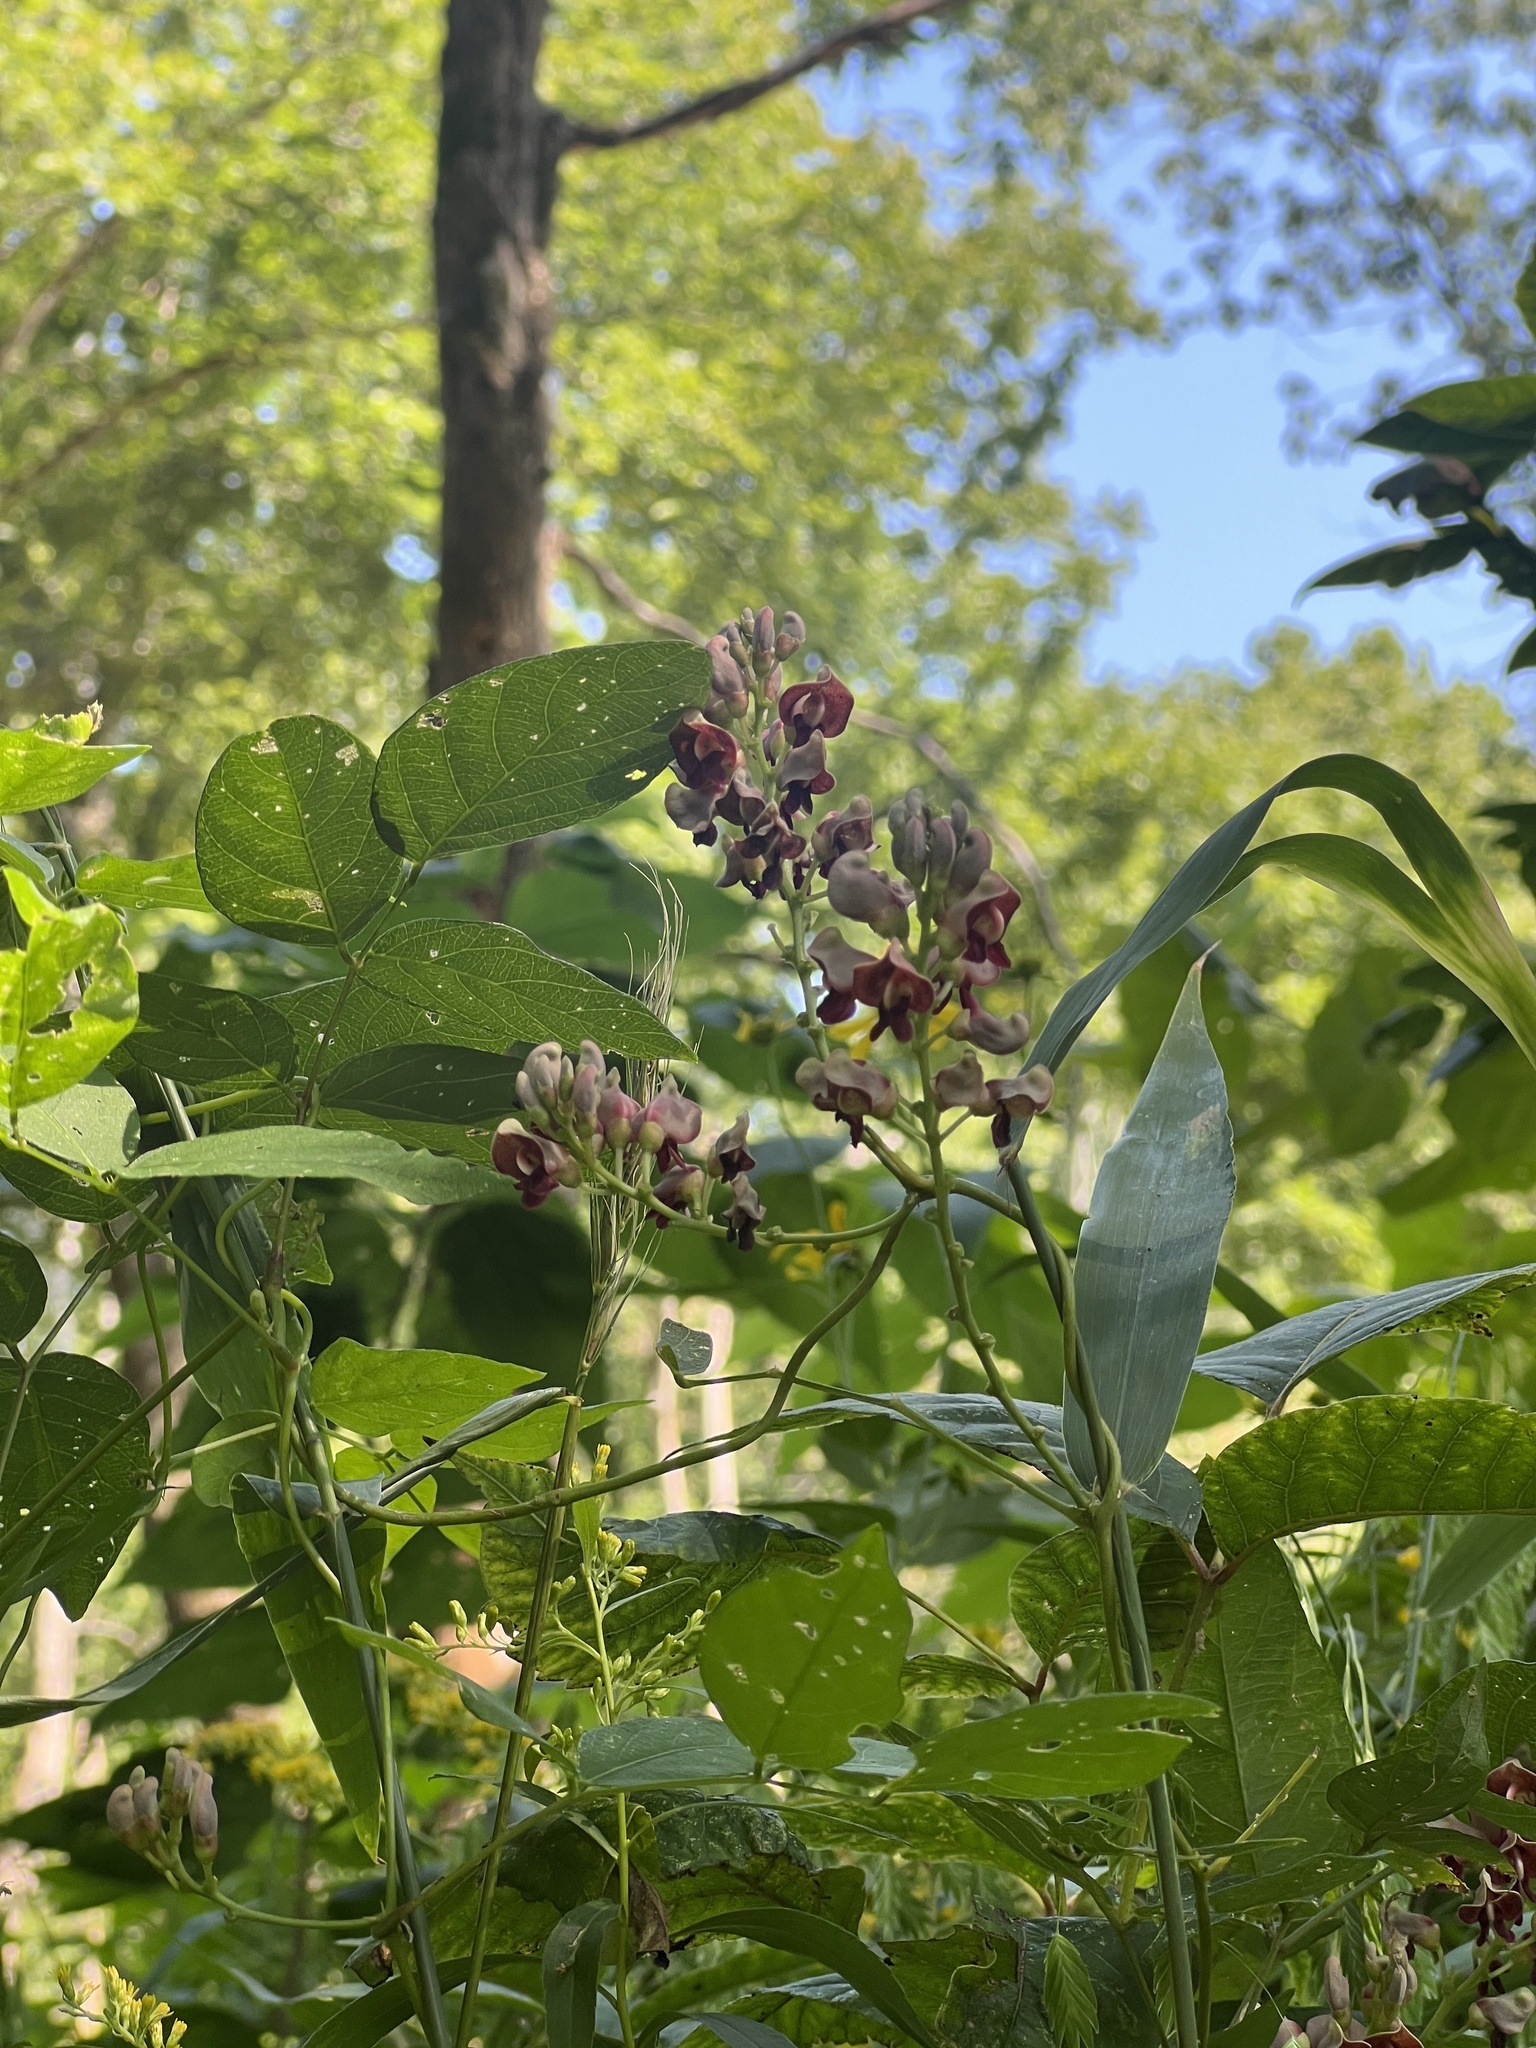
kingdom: Plantae
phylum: Tracheophyta
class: Magnoliopsida
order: Fabales
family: Fabaceae
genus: Apios
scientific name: Apios americana
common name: American potato-bean
